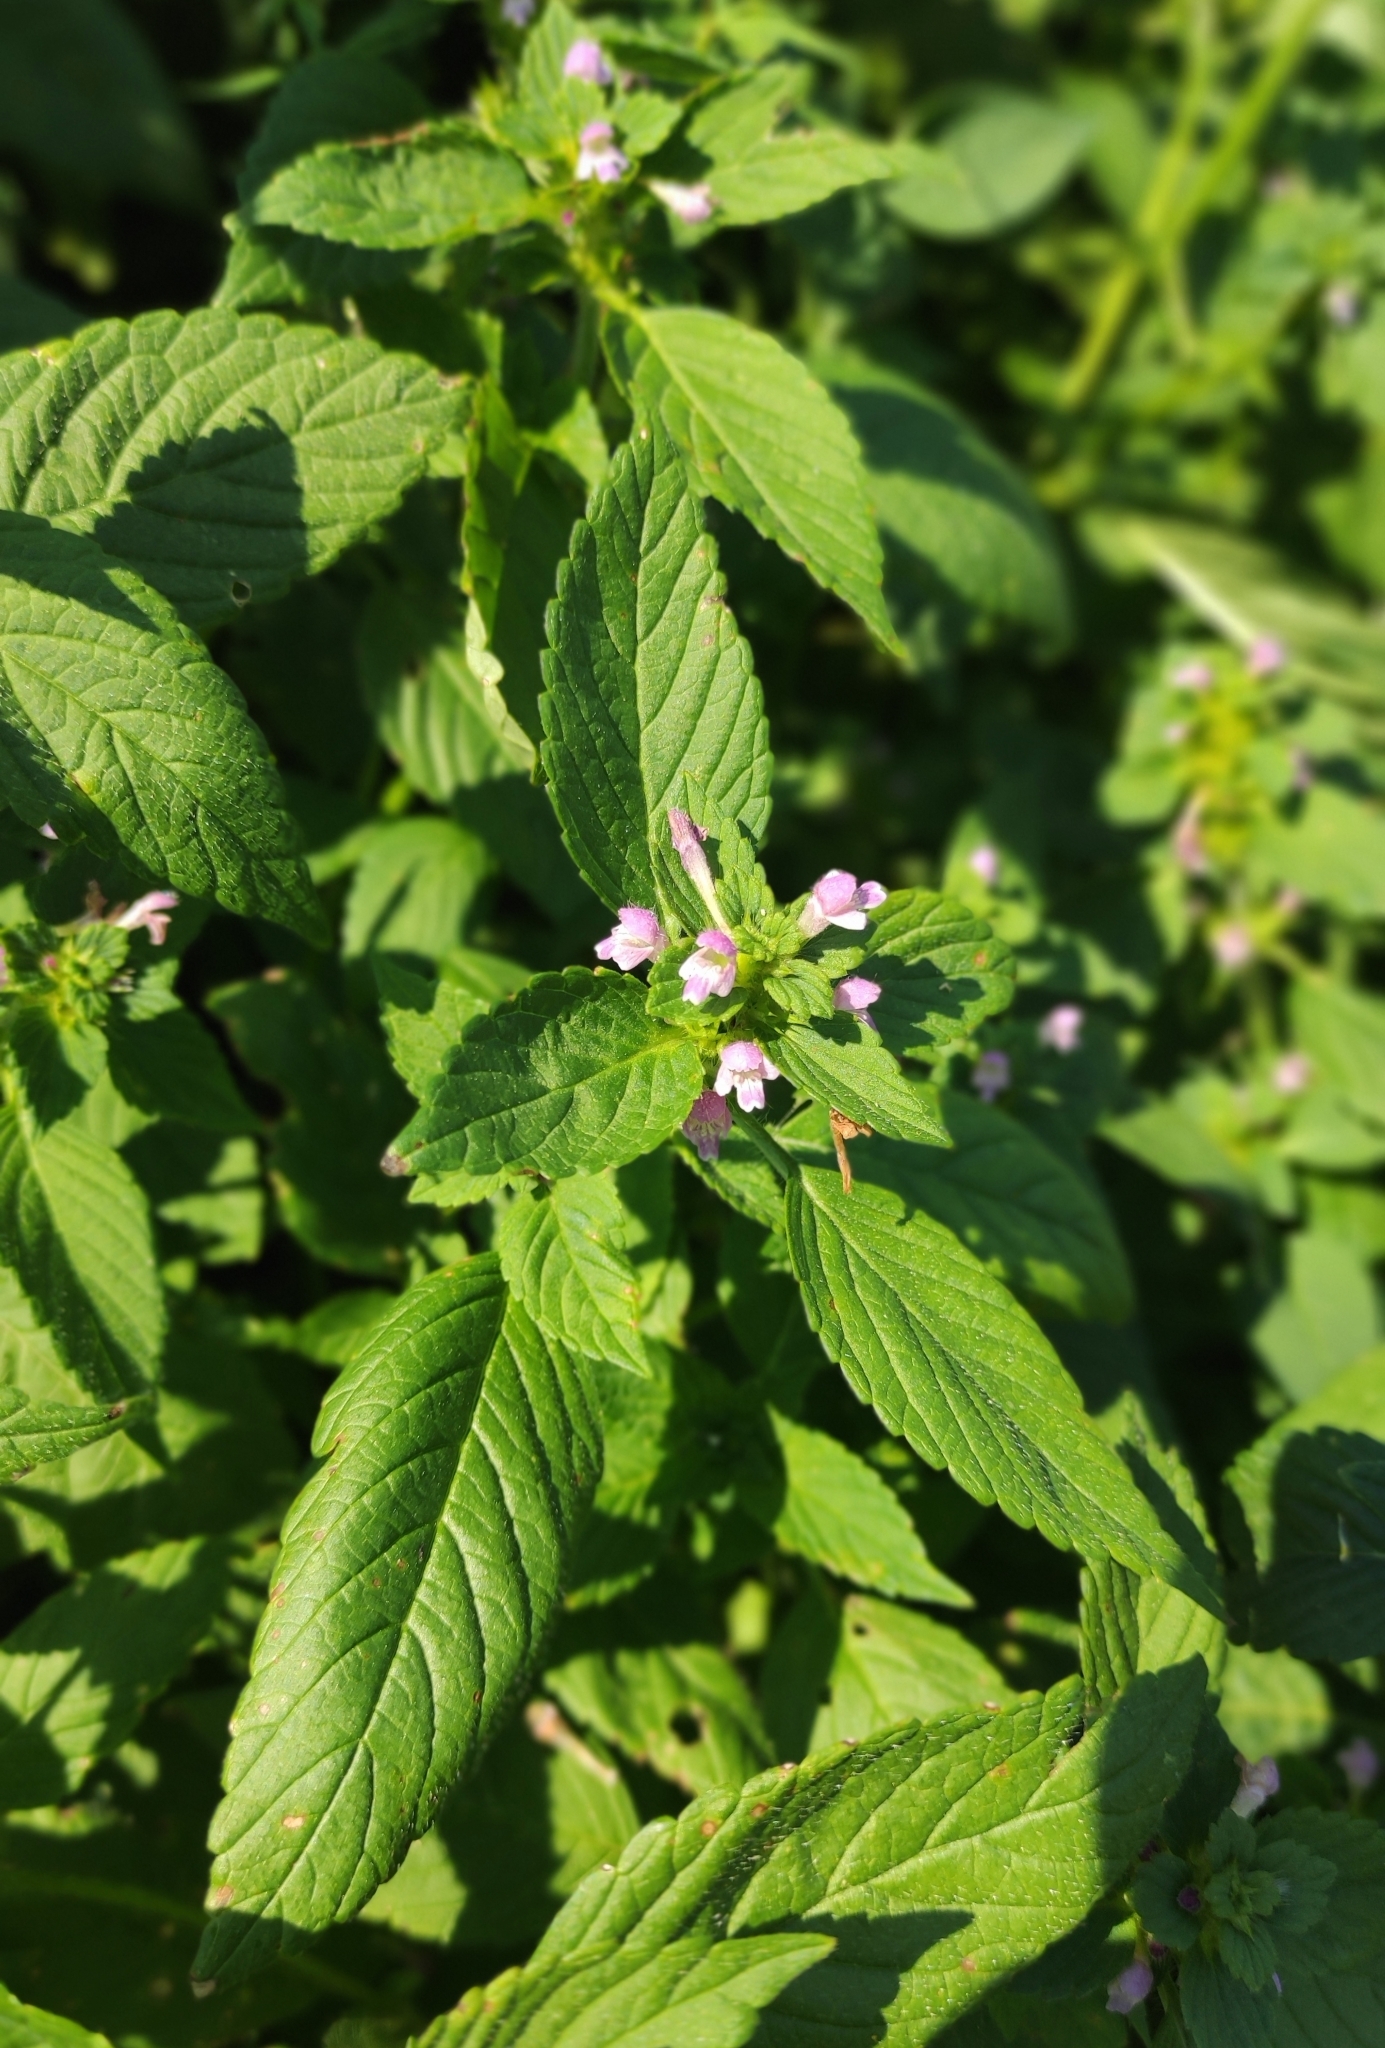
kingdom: Plantae
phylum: Tracheophyta
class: Magnoliopsida
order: Lamiales
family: Lamiaceae
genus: Galeopsis
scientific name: Galeopsis bifida
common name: Bifid hemp-nettle
